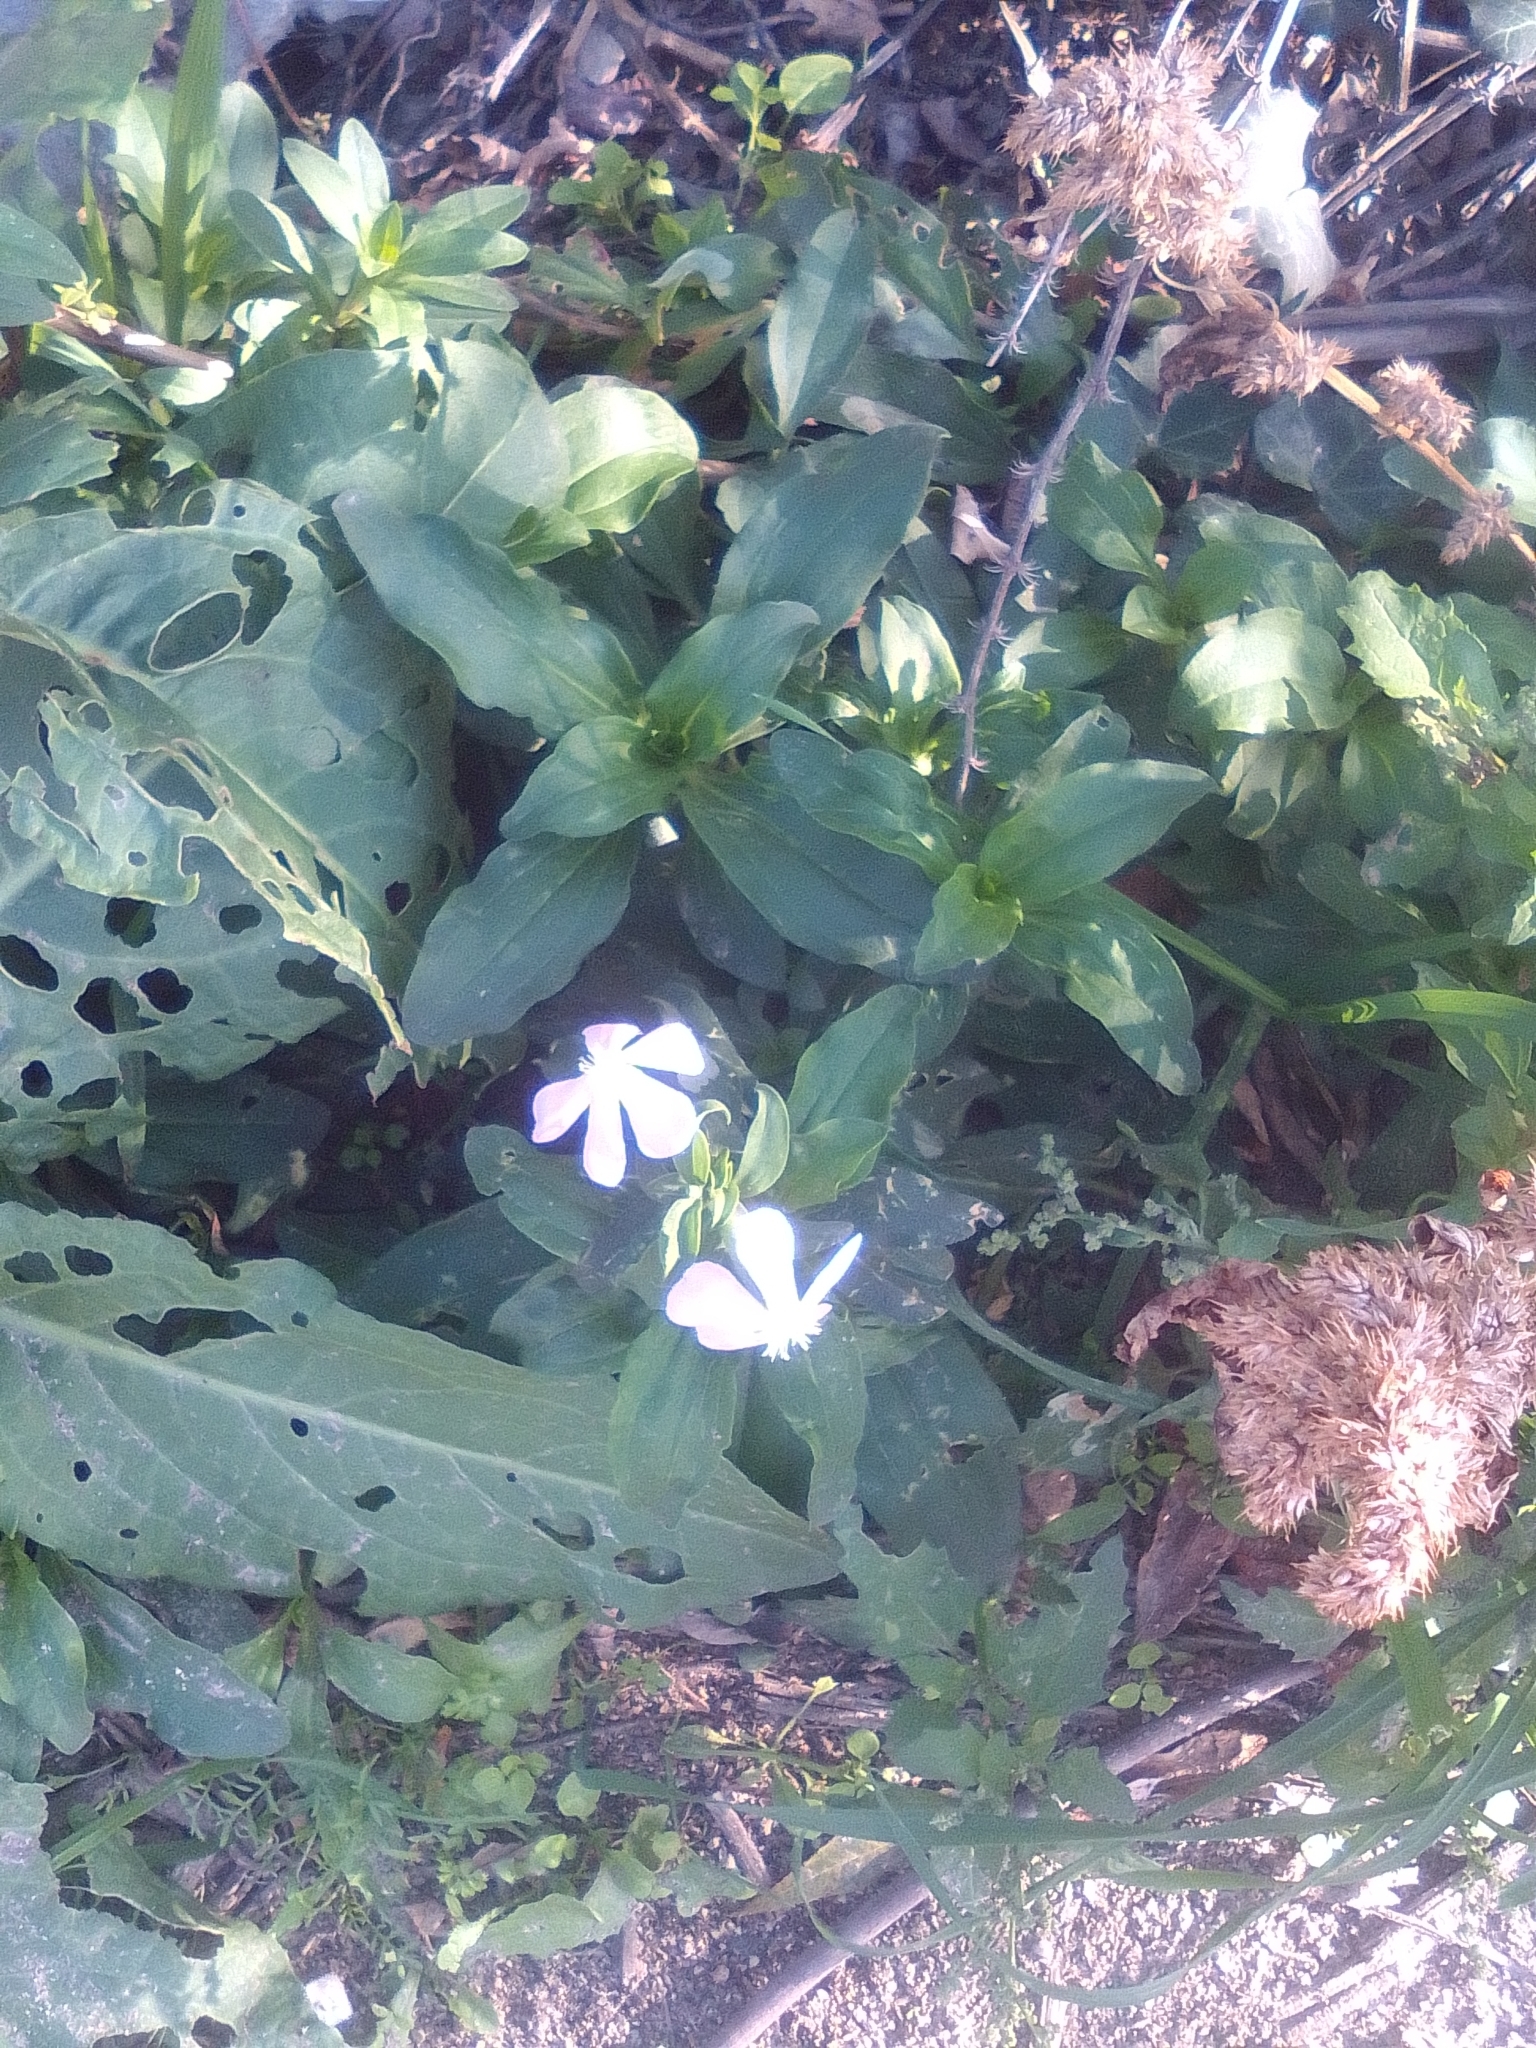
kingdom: Plantae
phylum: Tracheophyta
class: Magnoliopsida
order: Caryophyllales
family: Caryophyllaceae
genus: Saponaria
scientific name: Saponaria officinalis
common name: Soapwort
